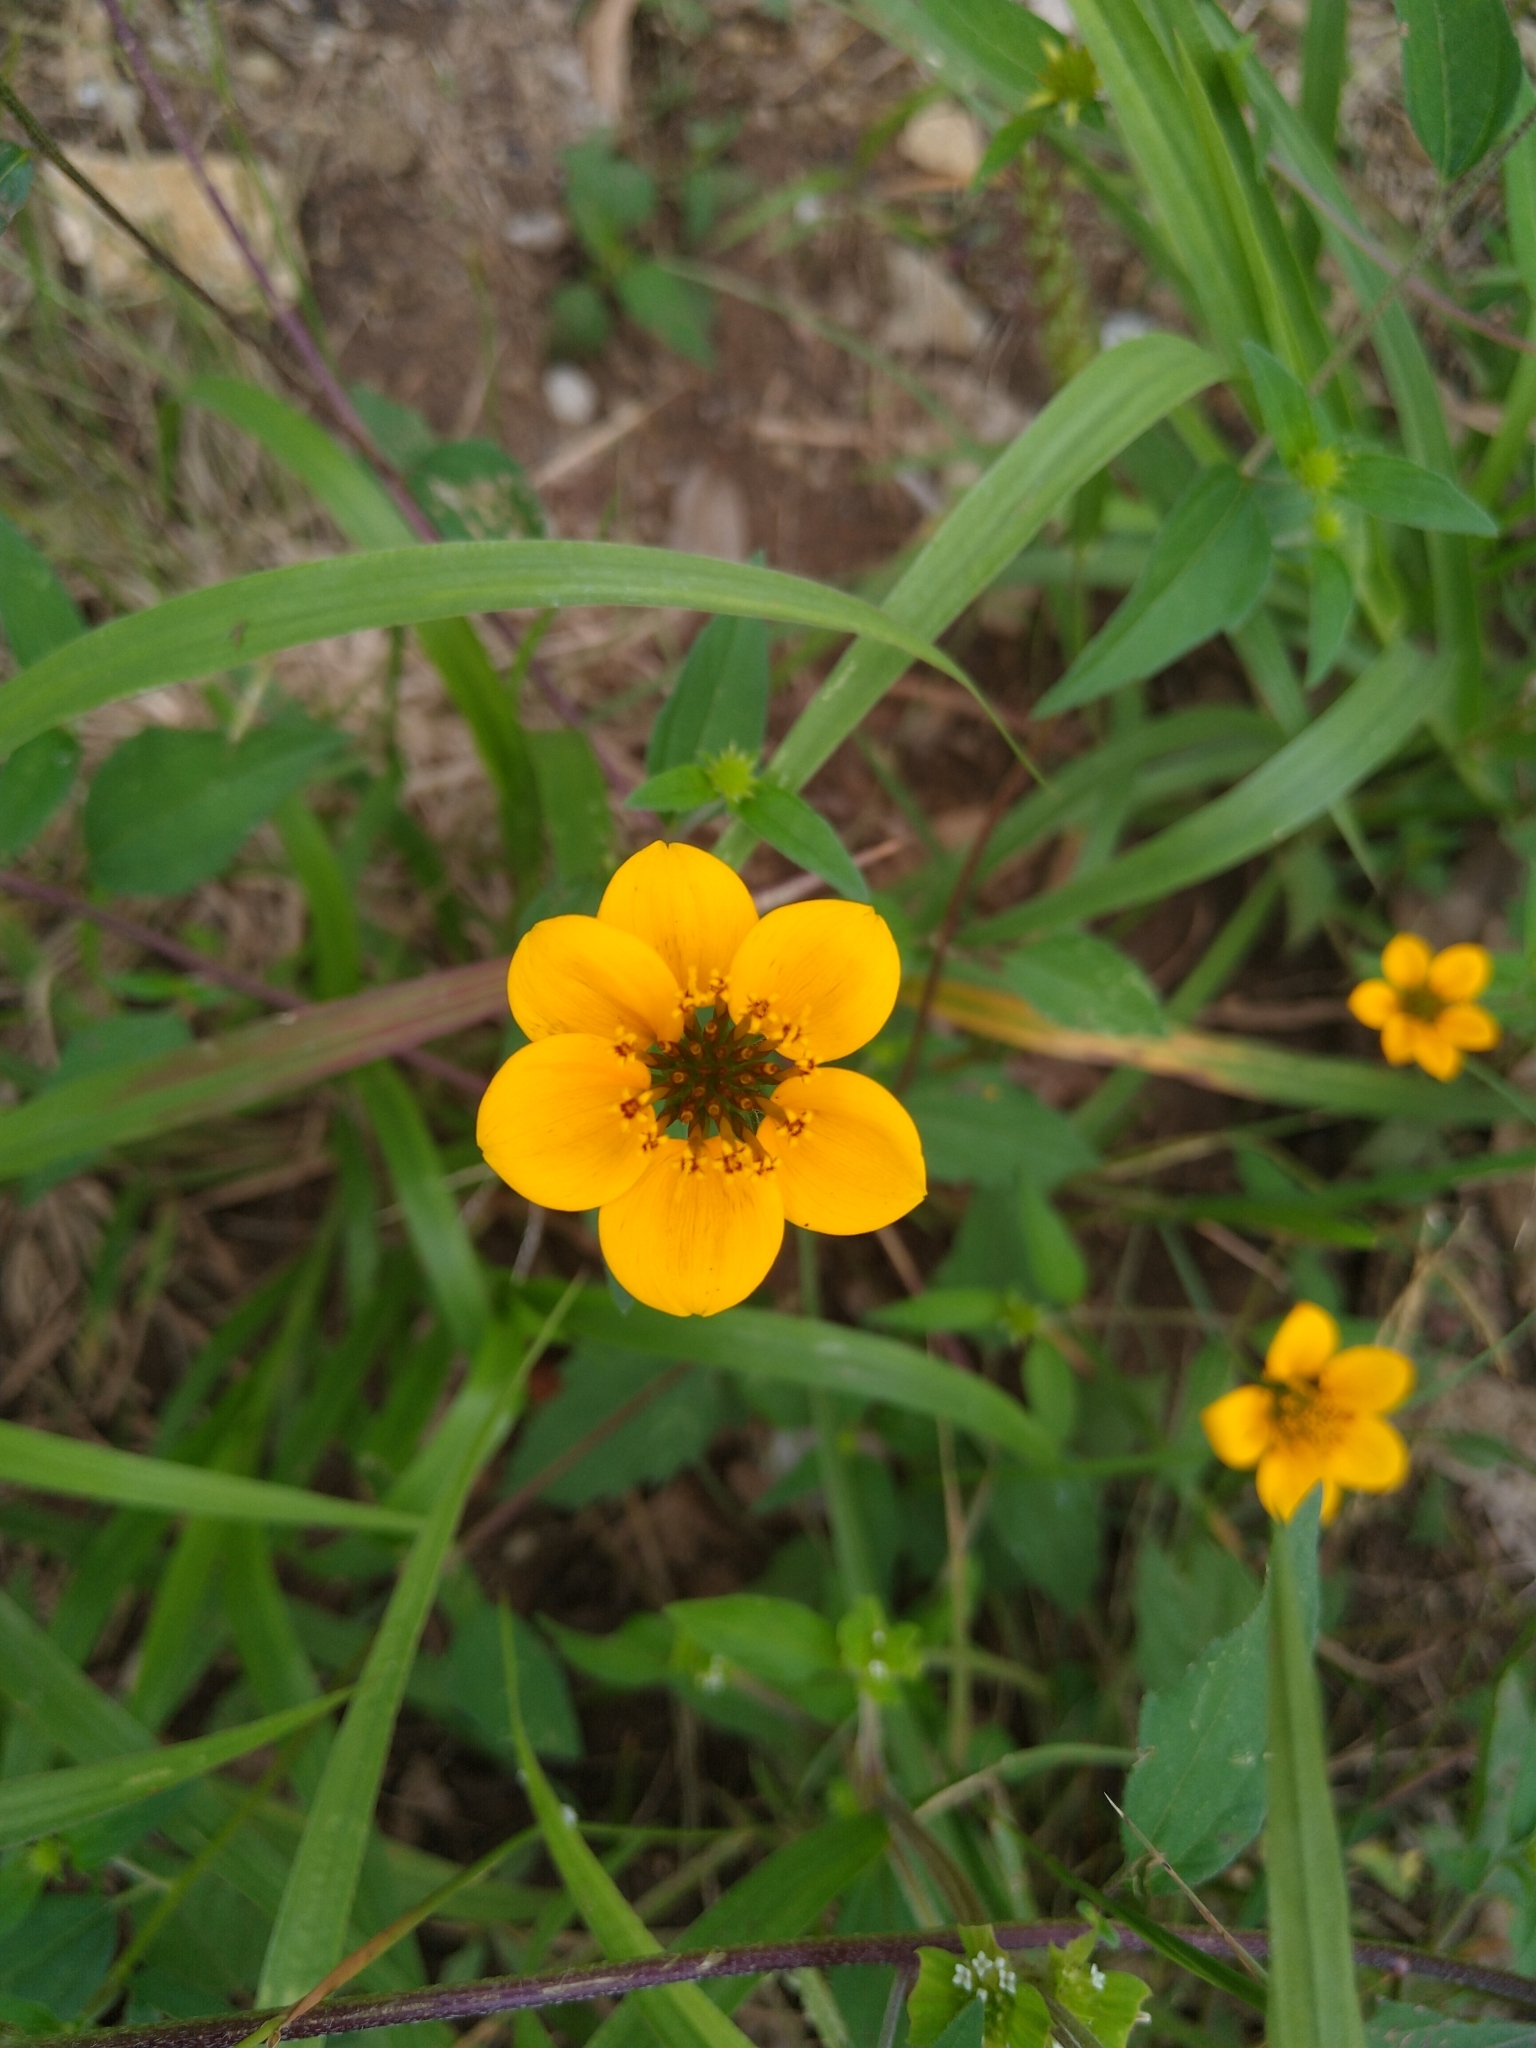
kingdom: Plantae
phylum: Tracheophyta
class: Magnoliopsida
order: Asterales
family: Asteraceae
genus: Sclerocarpus
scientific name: Sclerocarpus uniserialis
